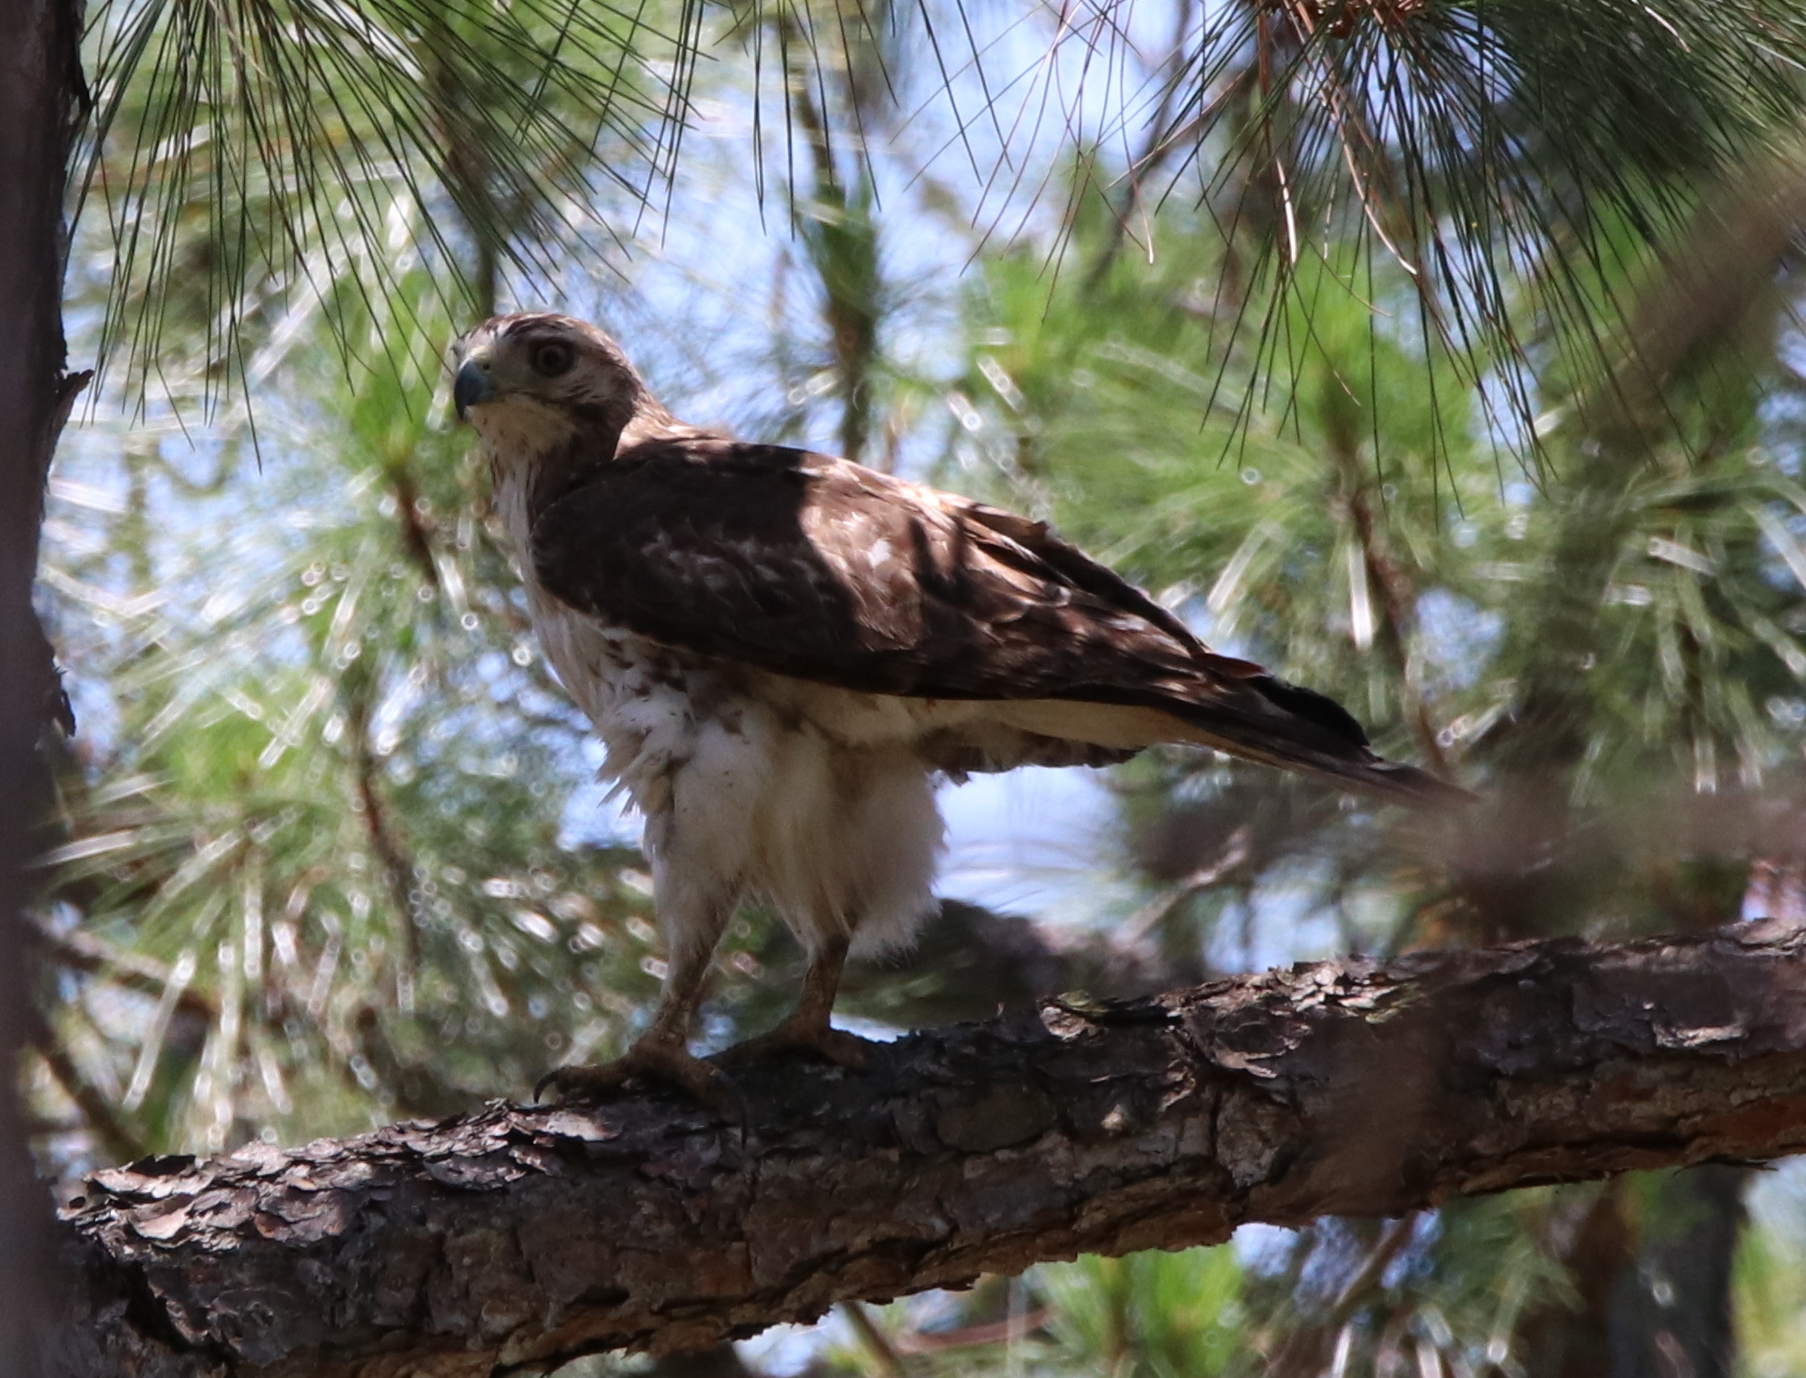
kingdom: Animalia
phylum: Chordata
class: Aves
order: Accipitriformes
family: Accipitridae
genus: Buteo
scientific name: Buteo jamaicensis
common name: Red-tailed hawk
